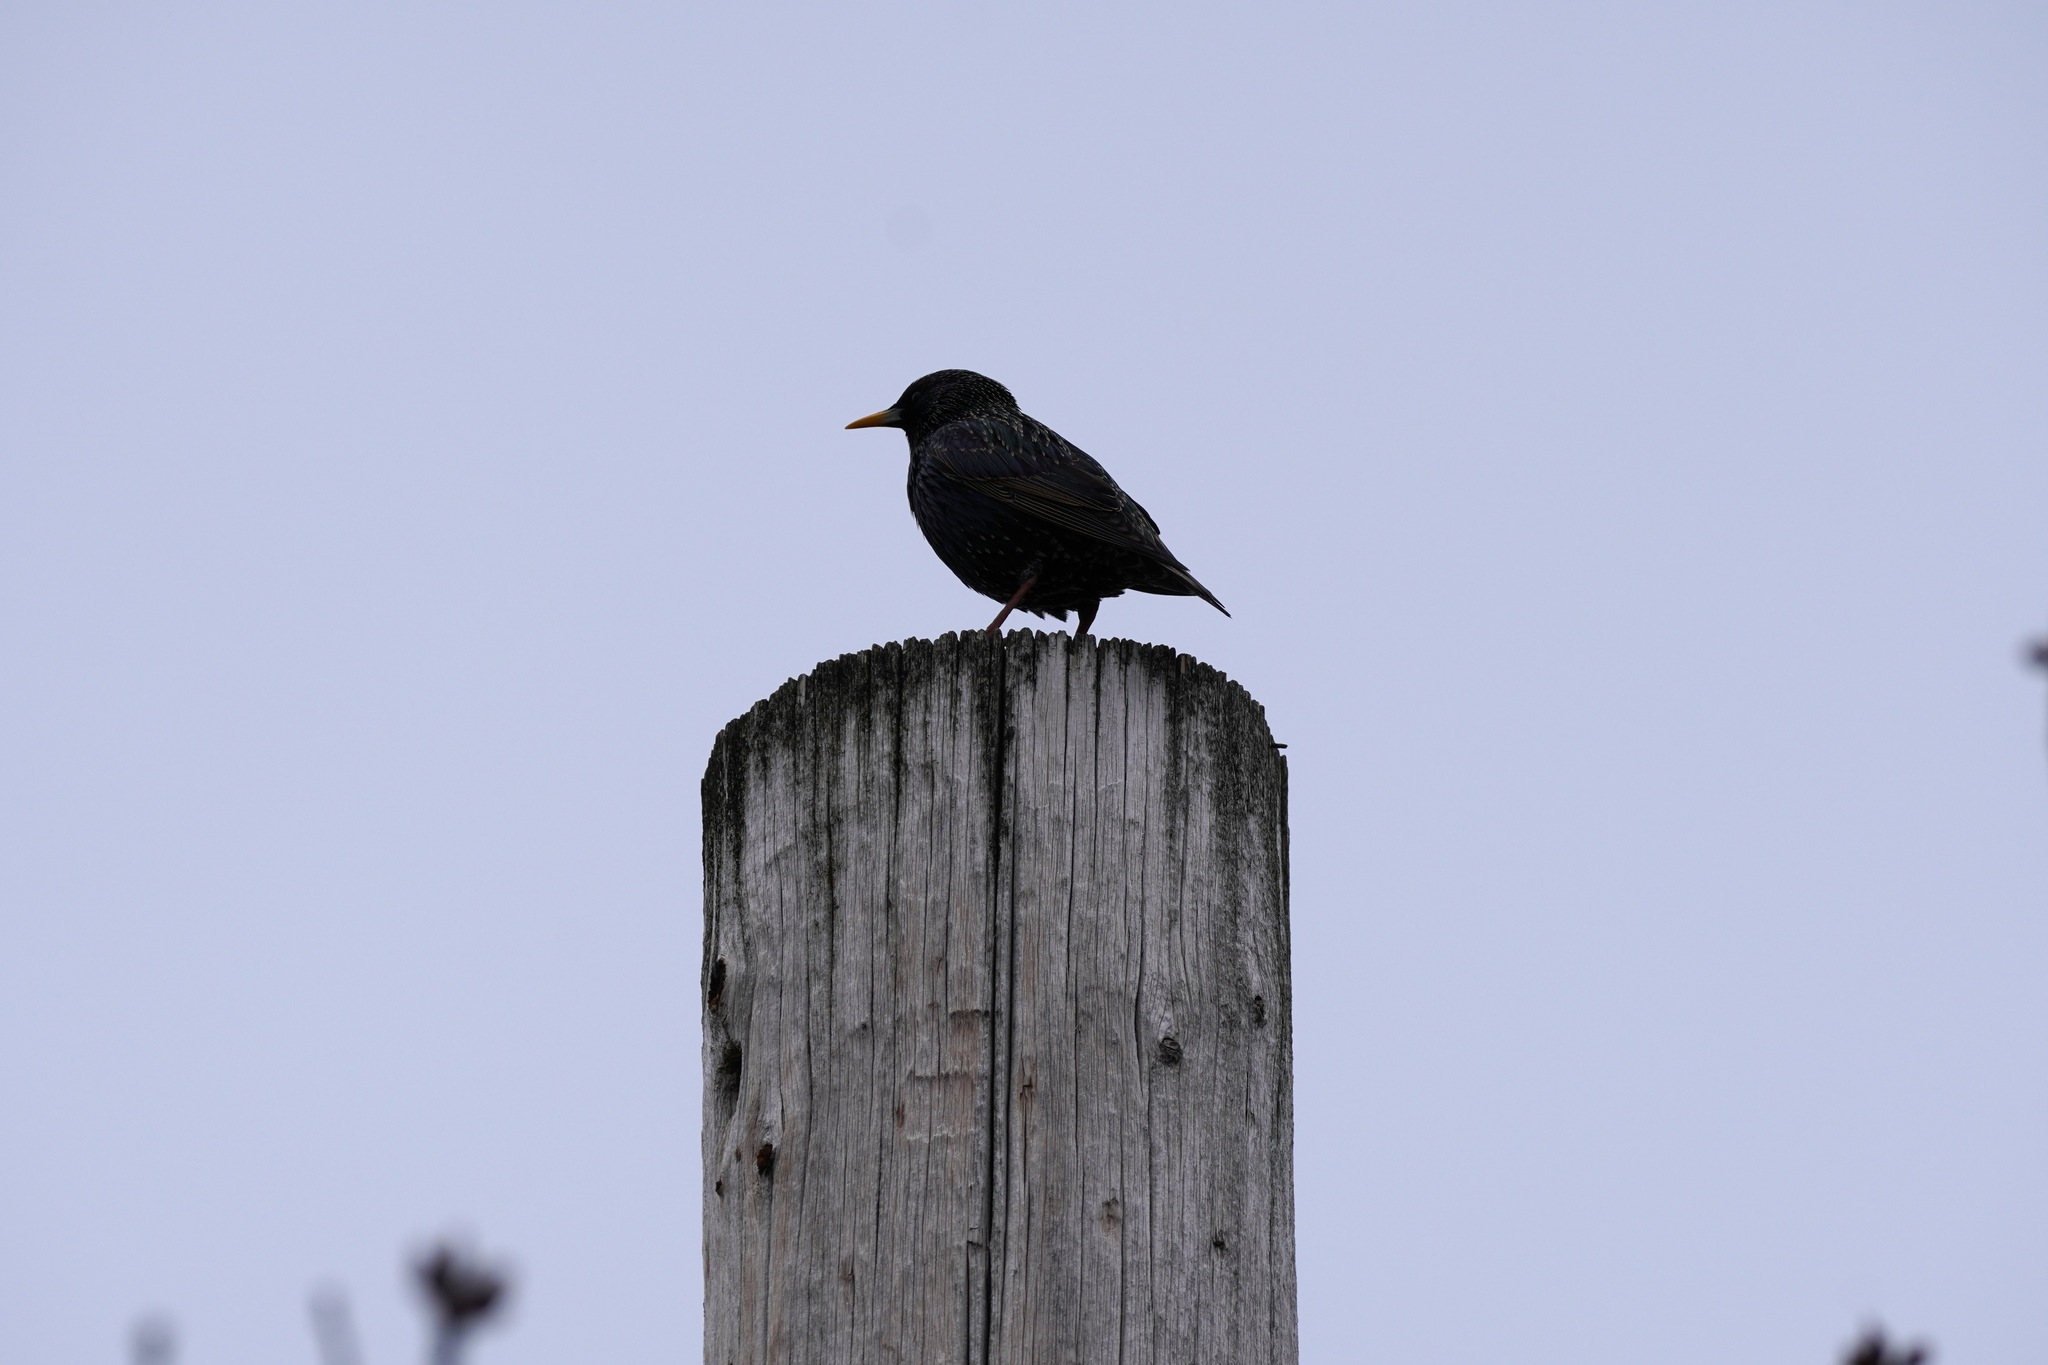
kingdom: Animalia
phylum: Chordata
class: Aves
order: Passeriformes
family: Sturnidae
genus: Sturnus
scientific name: Sturnus vulgaris
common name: Common starling
